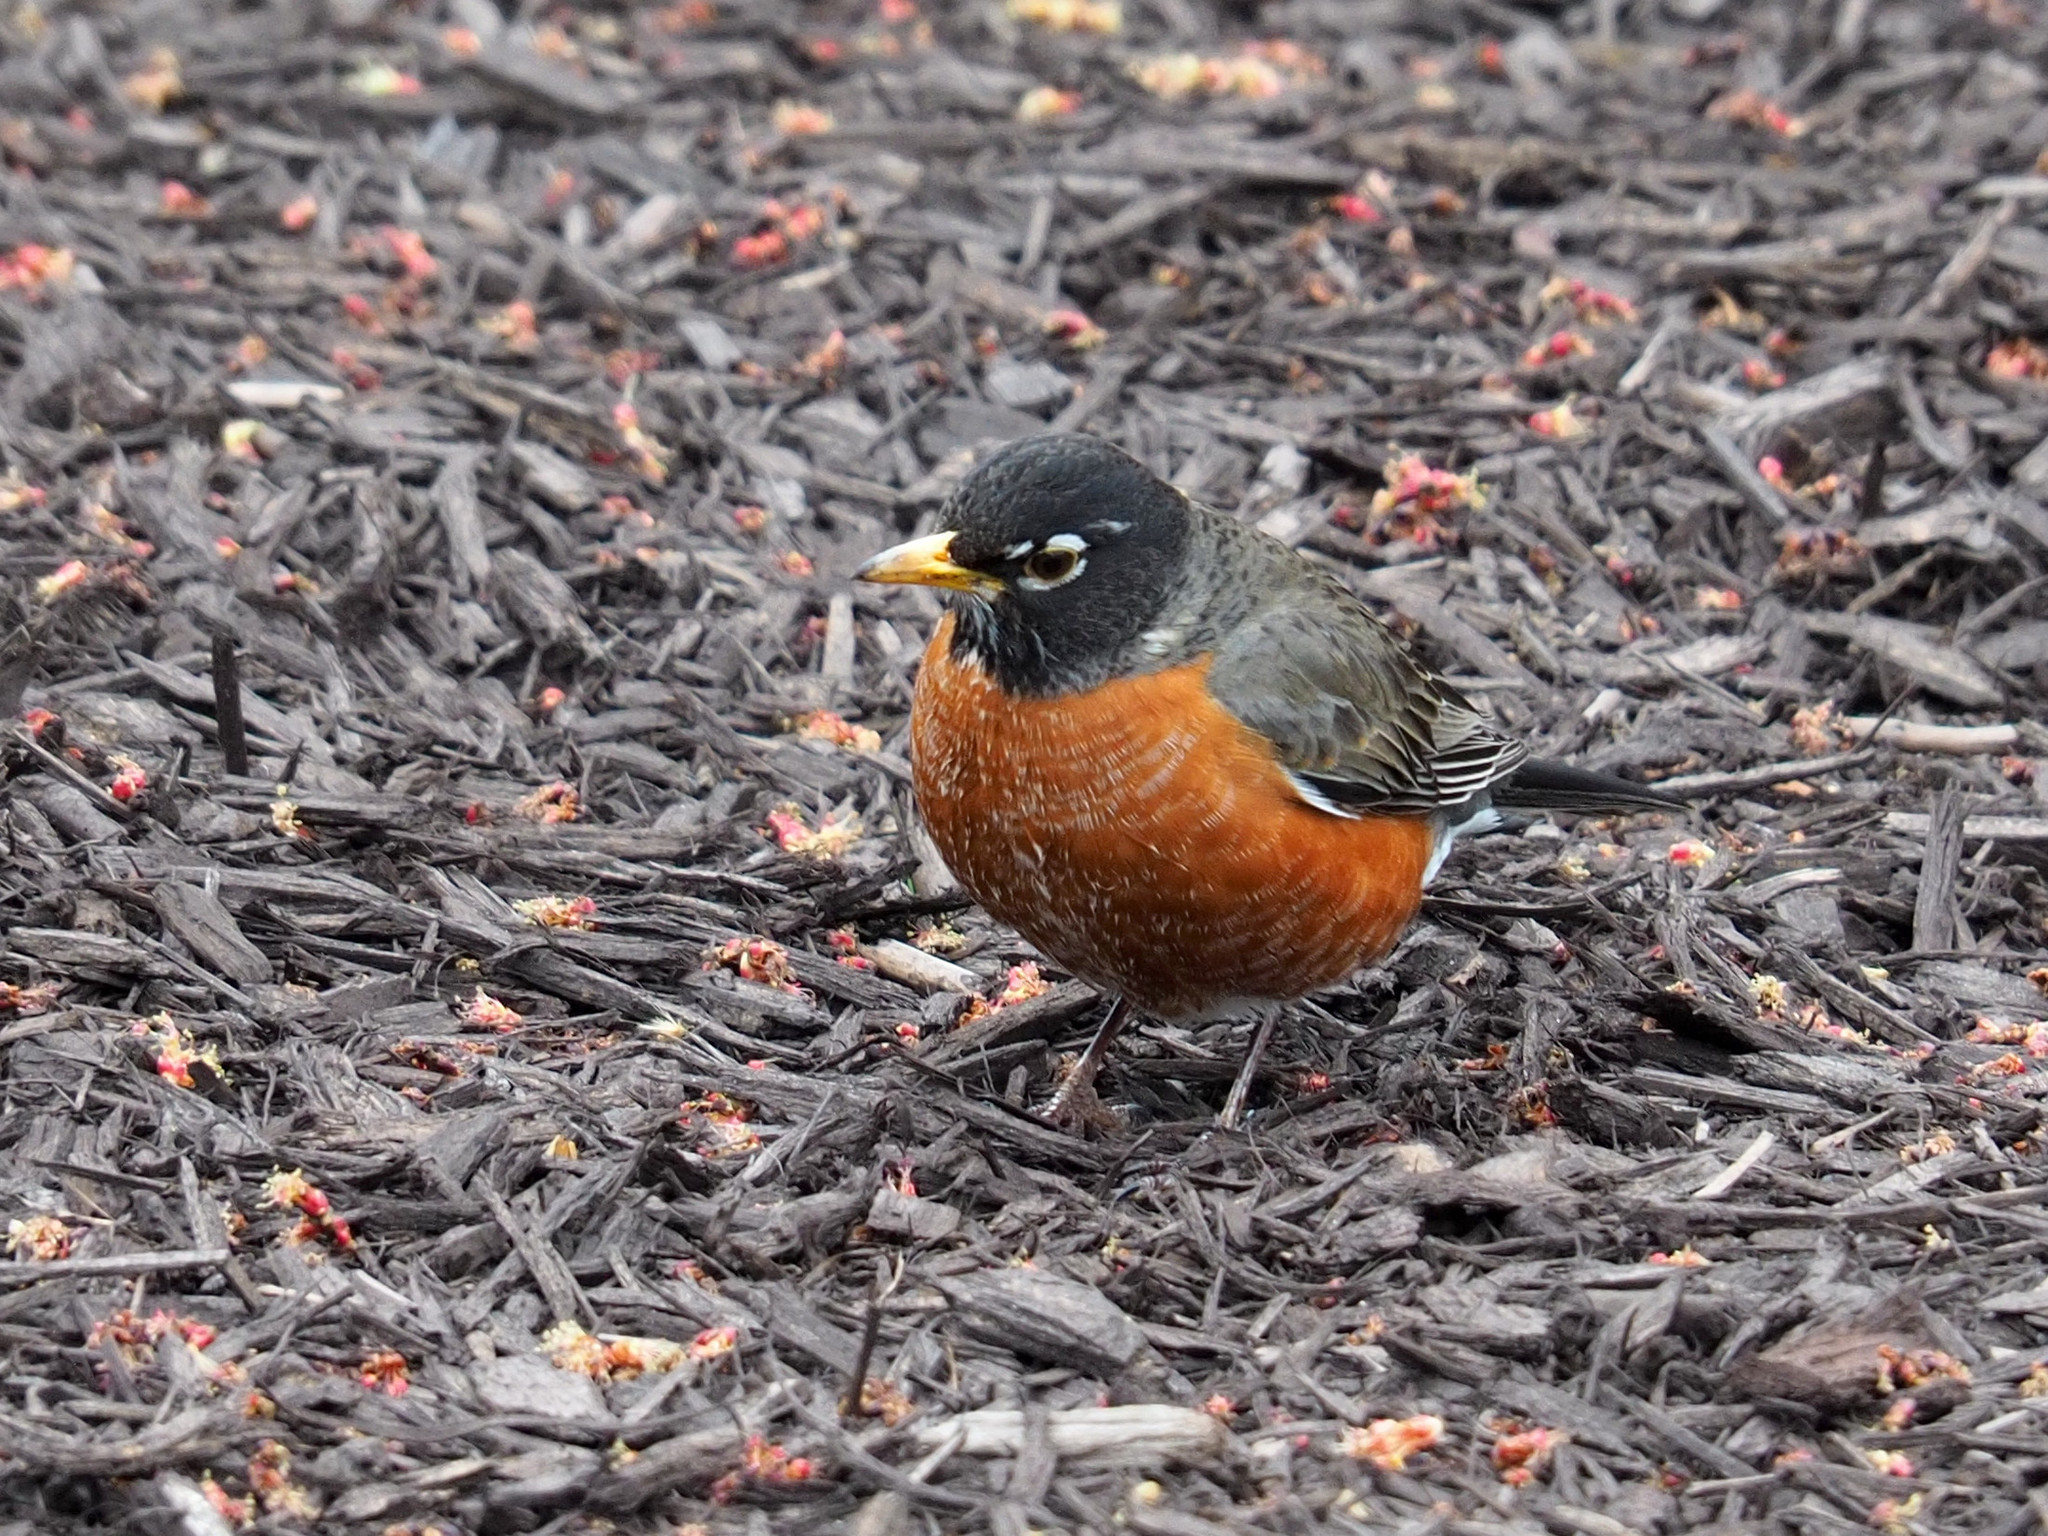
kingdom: Animalia
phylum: Chordata
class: Aves
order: Passeriformes
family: Turdidae
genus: Turdus
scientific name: Turdus migratorius
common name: American robin
